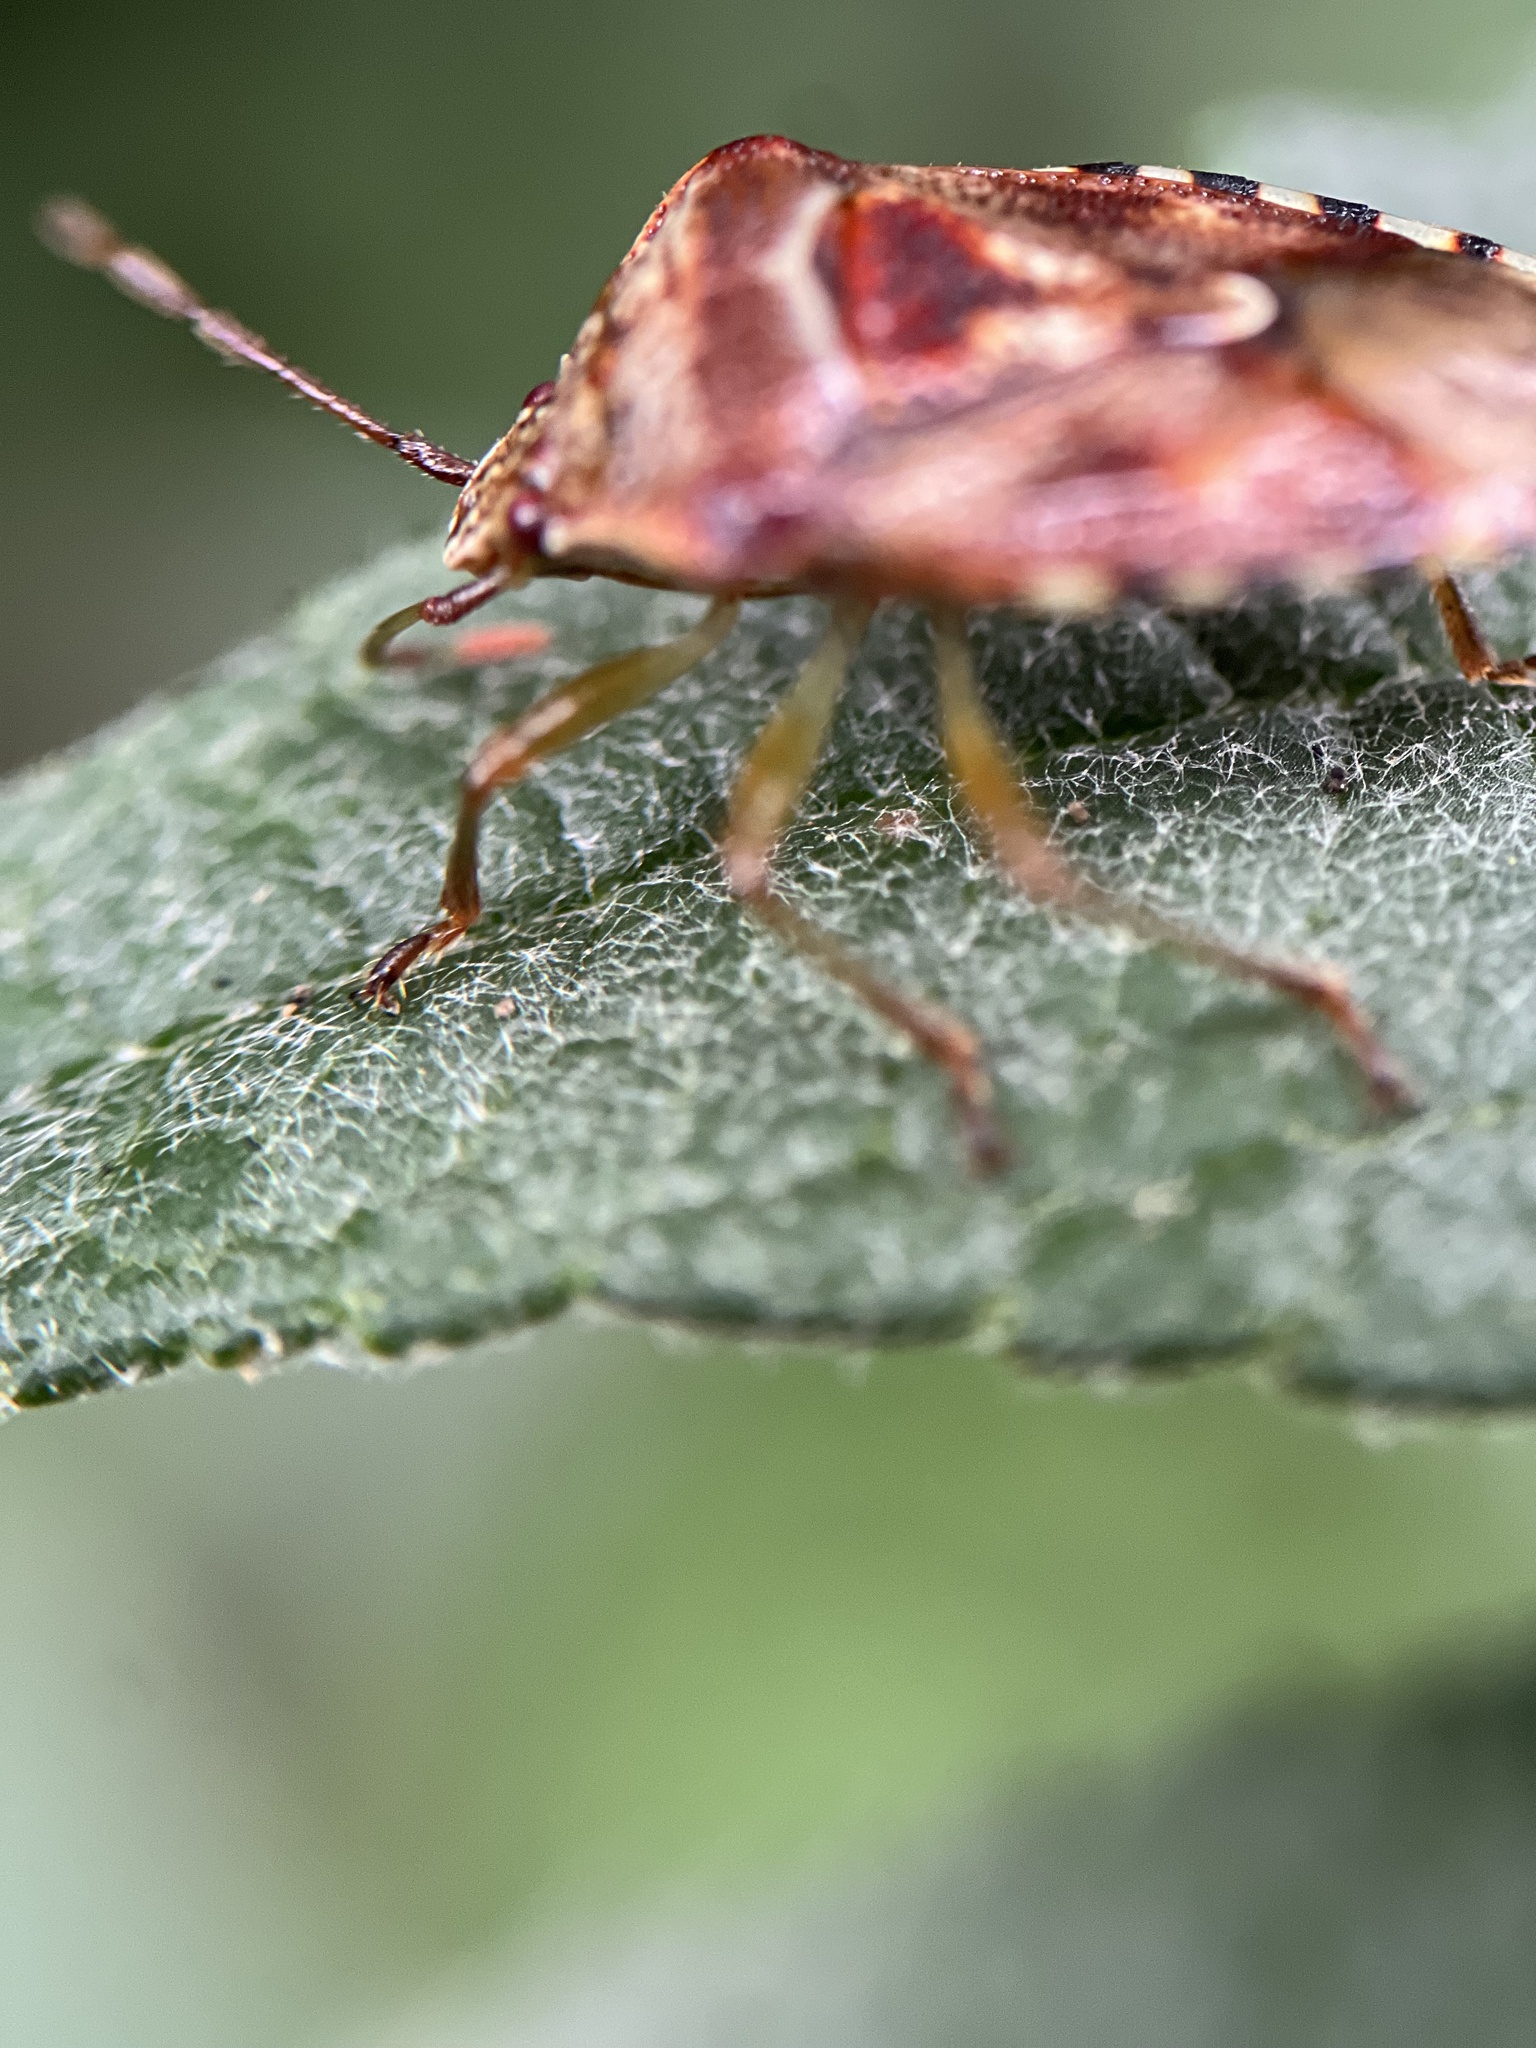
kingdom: Animalia
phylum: Arthropoda
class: Insecta
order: Hemiptera
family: Acanthosomatidae
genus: Elasmucha
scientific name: Elasmucha lateralis
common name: Shield bug
